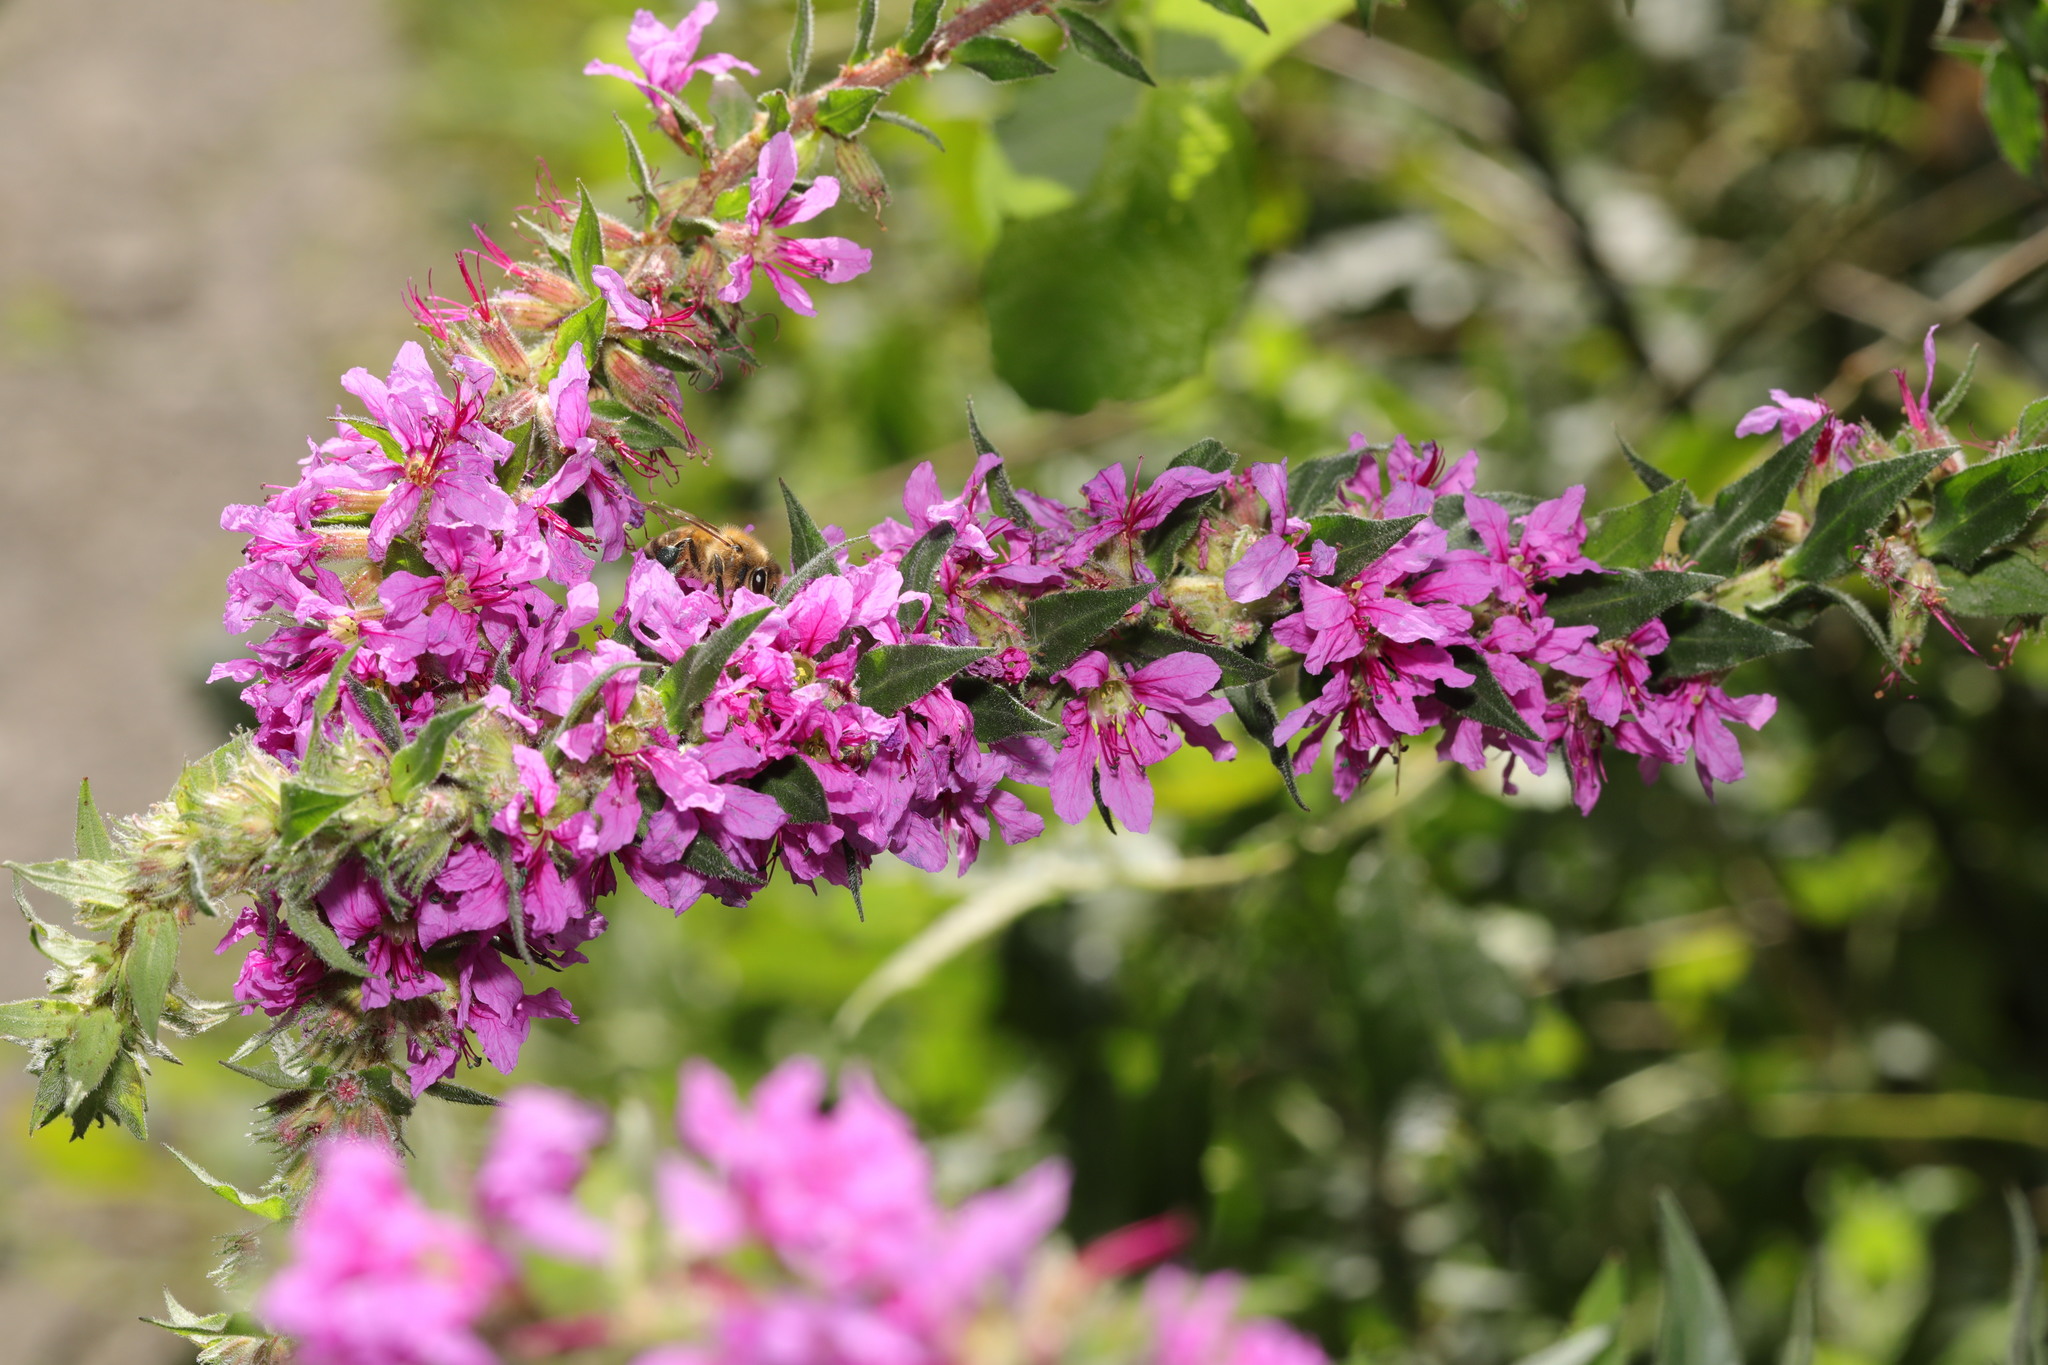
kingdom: Animalia
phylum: Arthropoda
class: Insecta
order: Hymenoptera
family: Apidae
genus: Apis
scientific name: Apis mellifera
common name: Honey bee
